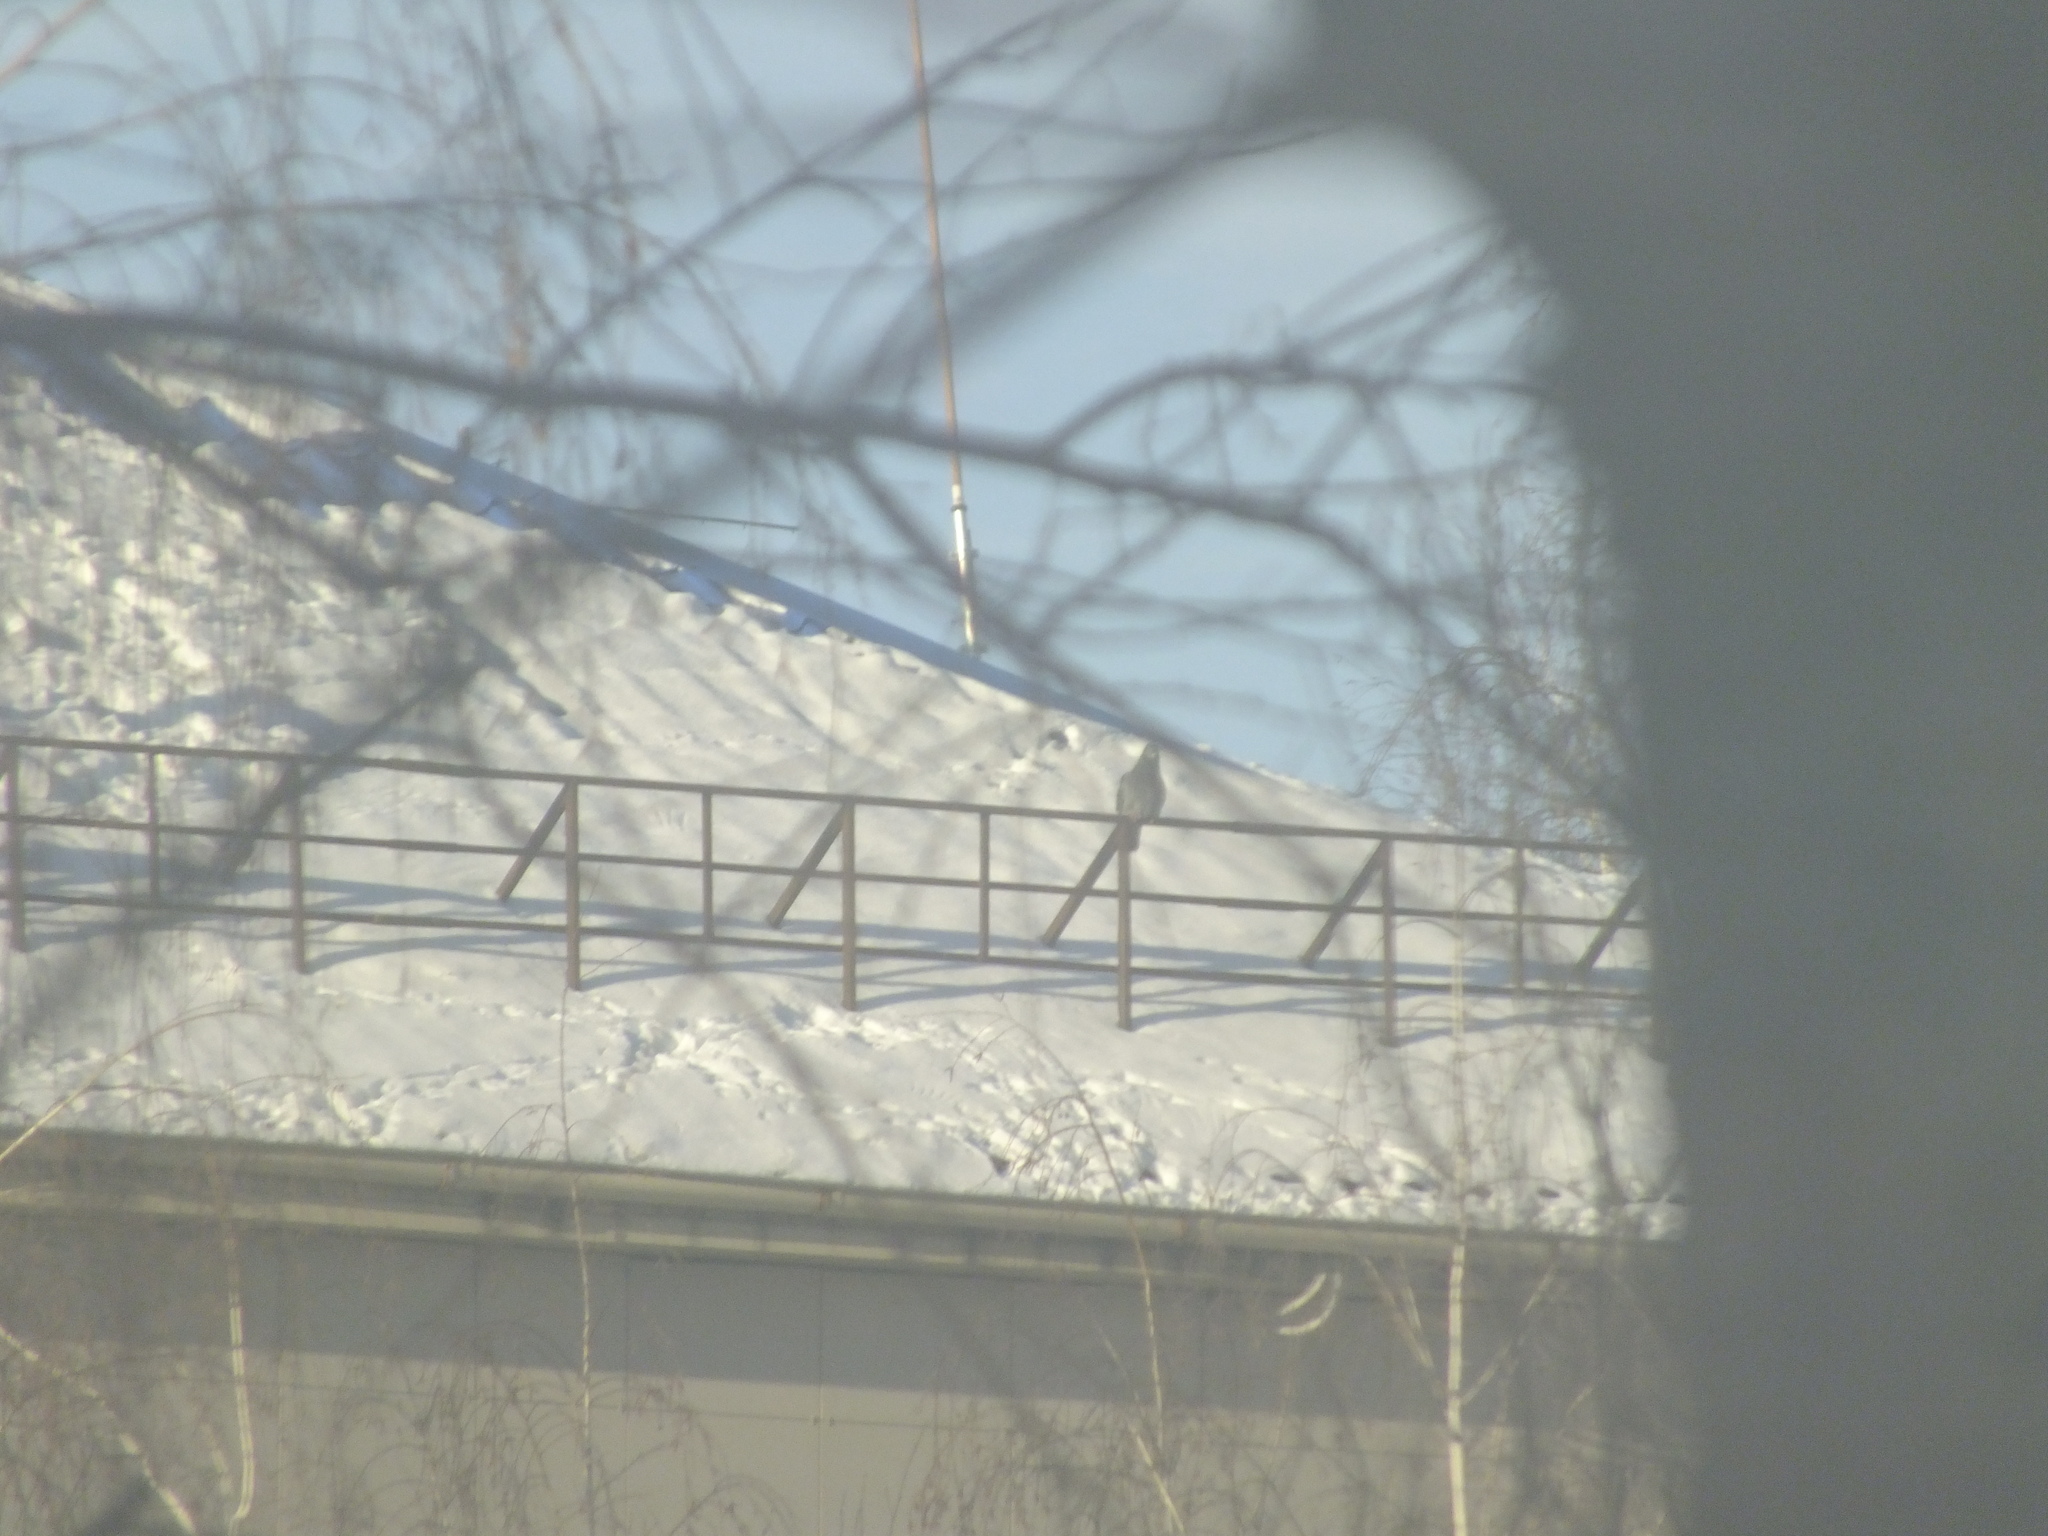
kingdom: Animalia
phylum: Chordata
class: Aves
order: Columbiformes
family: Columbidae
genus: Columba
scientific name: Columba livia
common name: Rock pigeon
